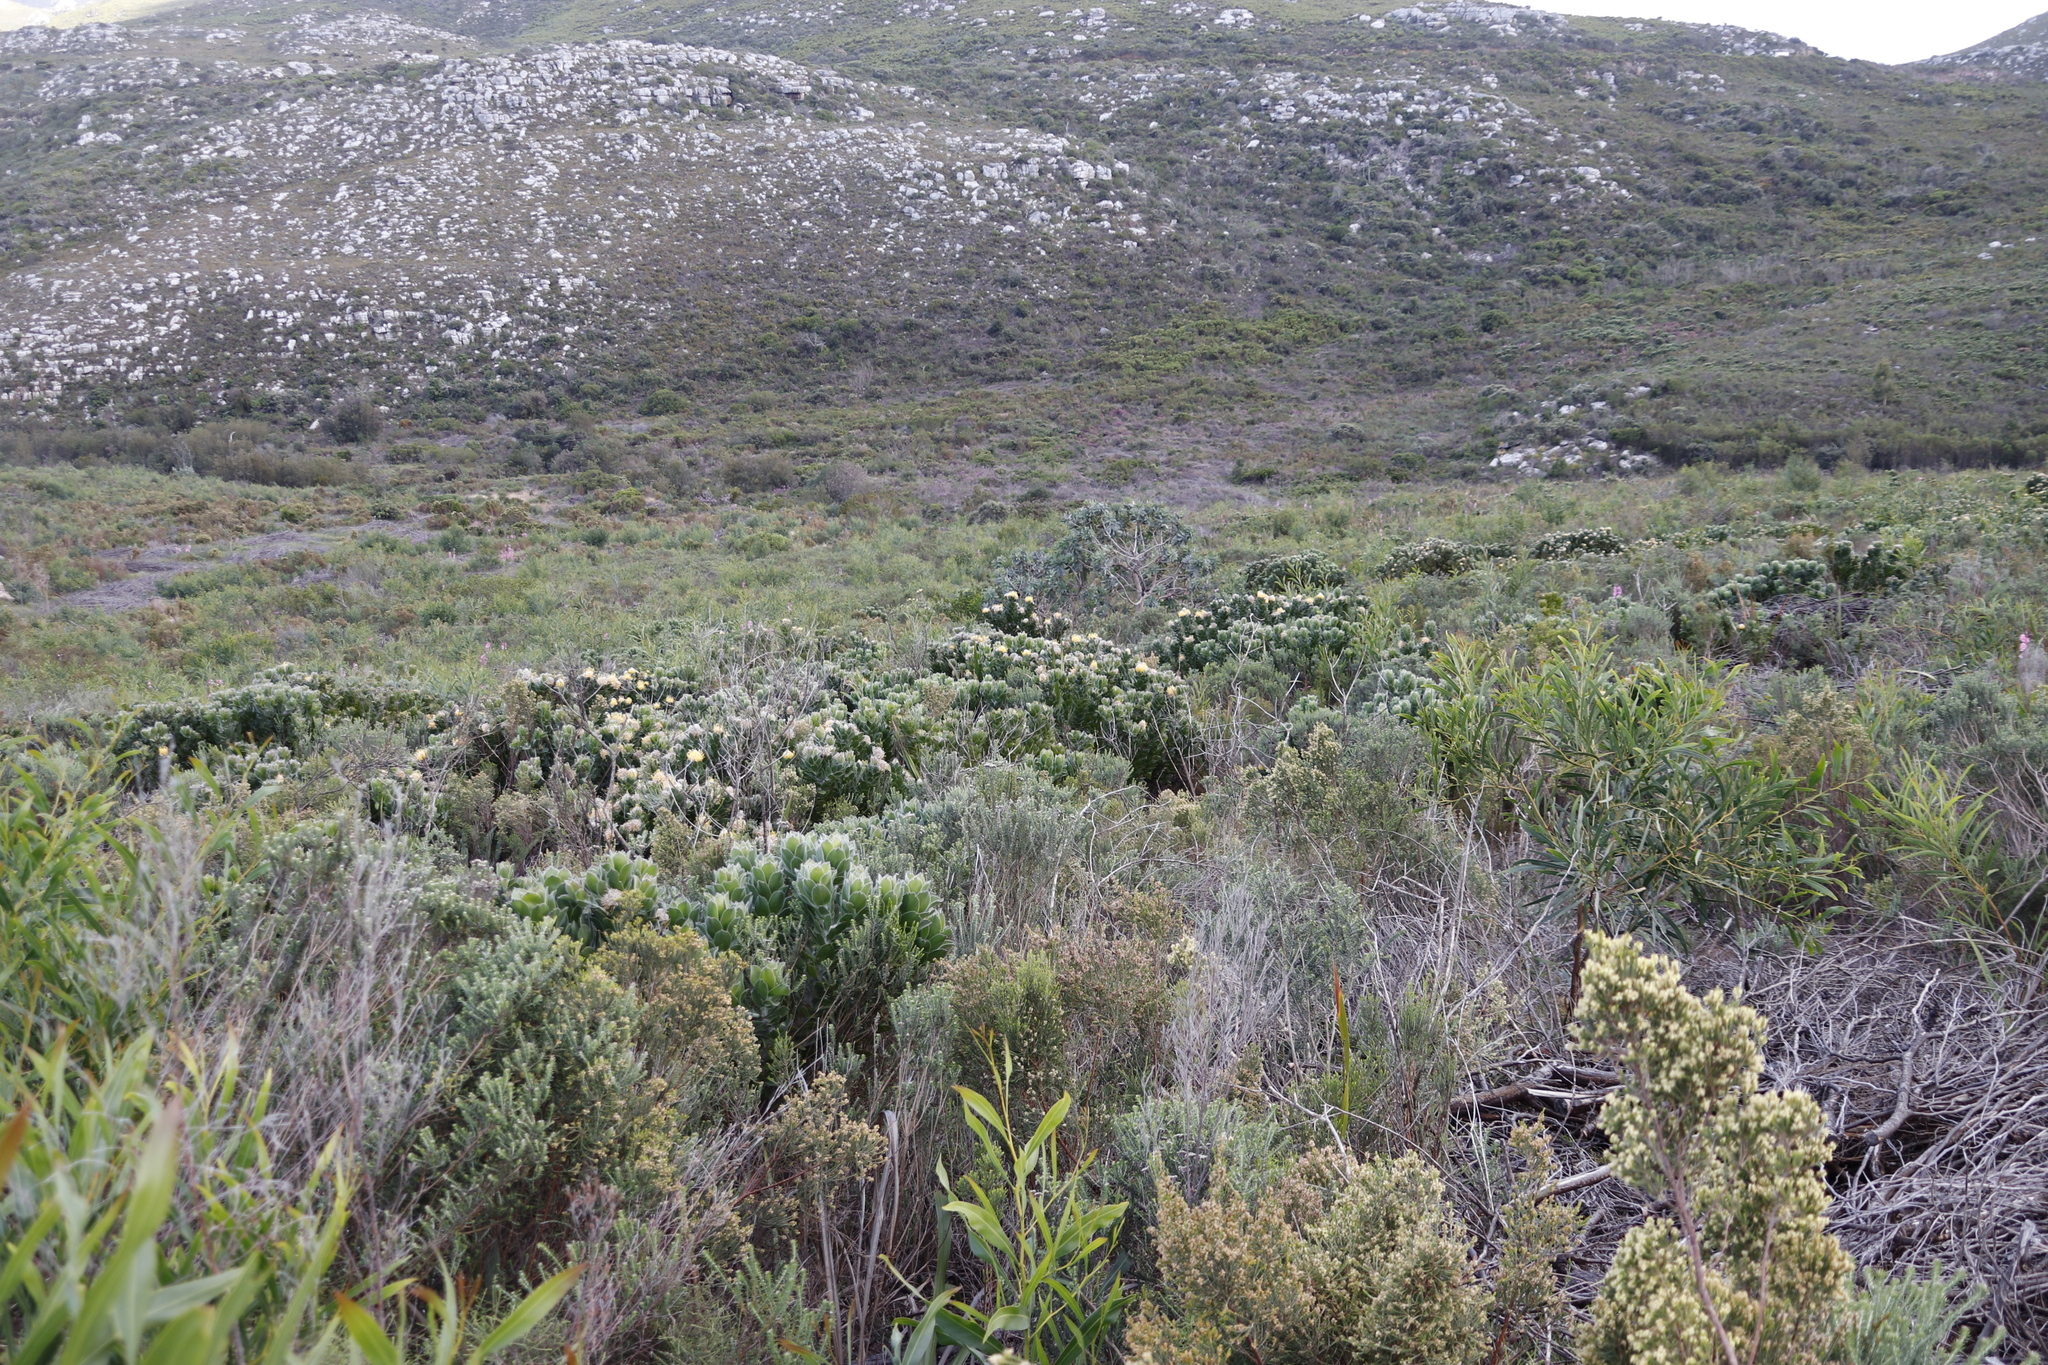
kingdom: Plantae
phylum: Tracheophyta
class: Magnoliopsida
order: Proteales
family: Proteaceae
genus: Leucospermum
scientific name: Leucospermum conocarpodendron
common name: Tree pincushion
